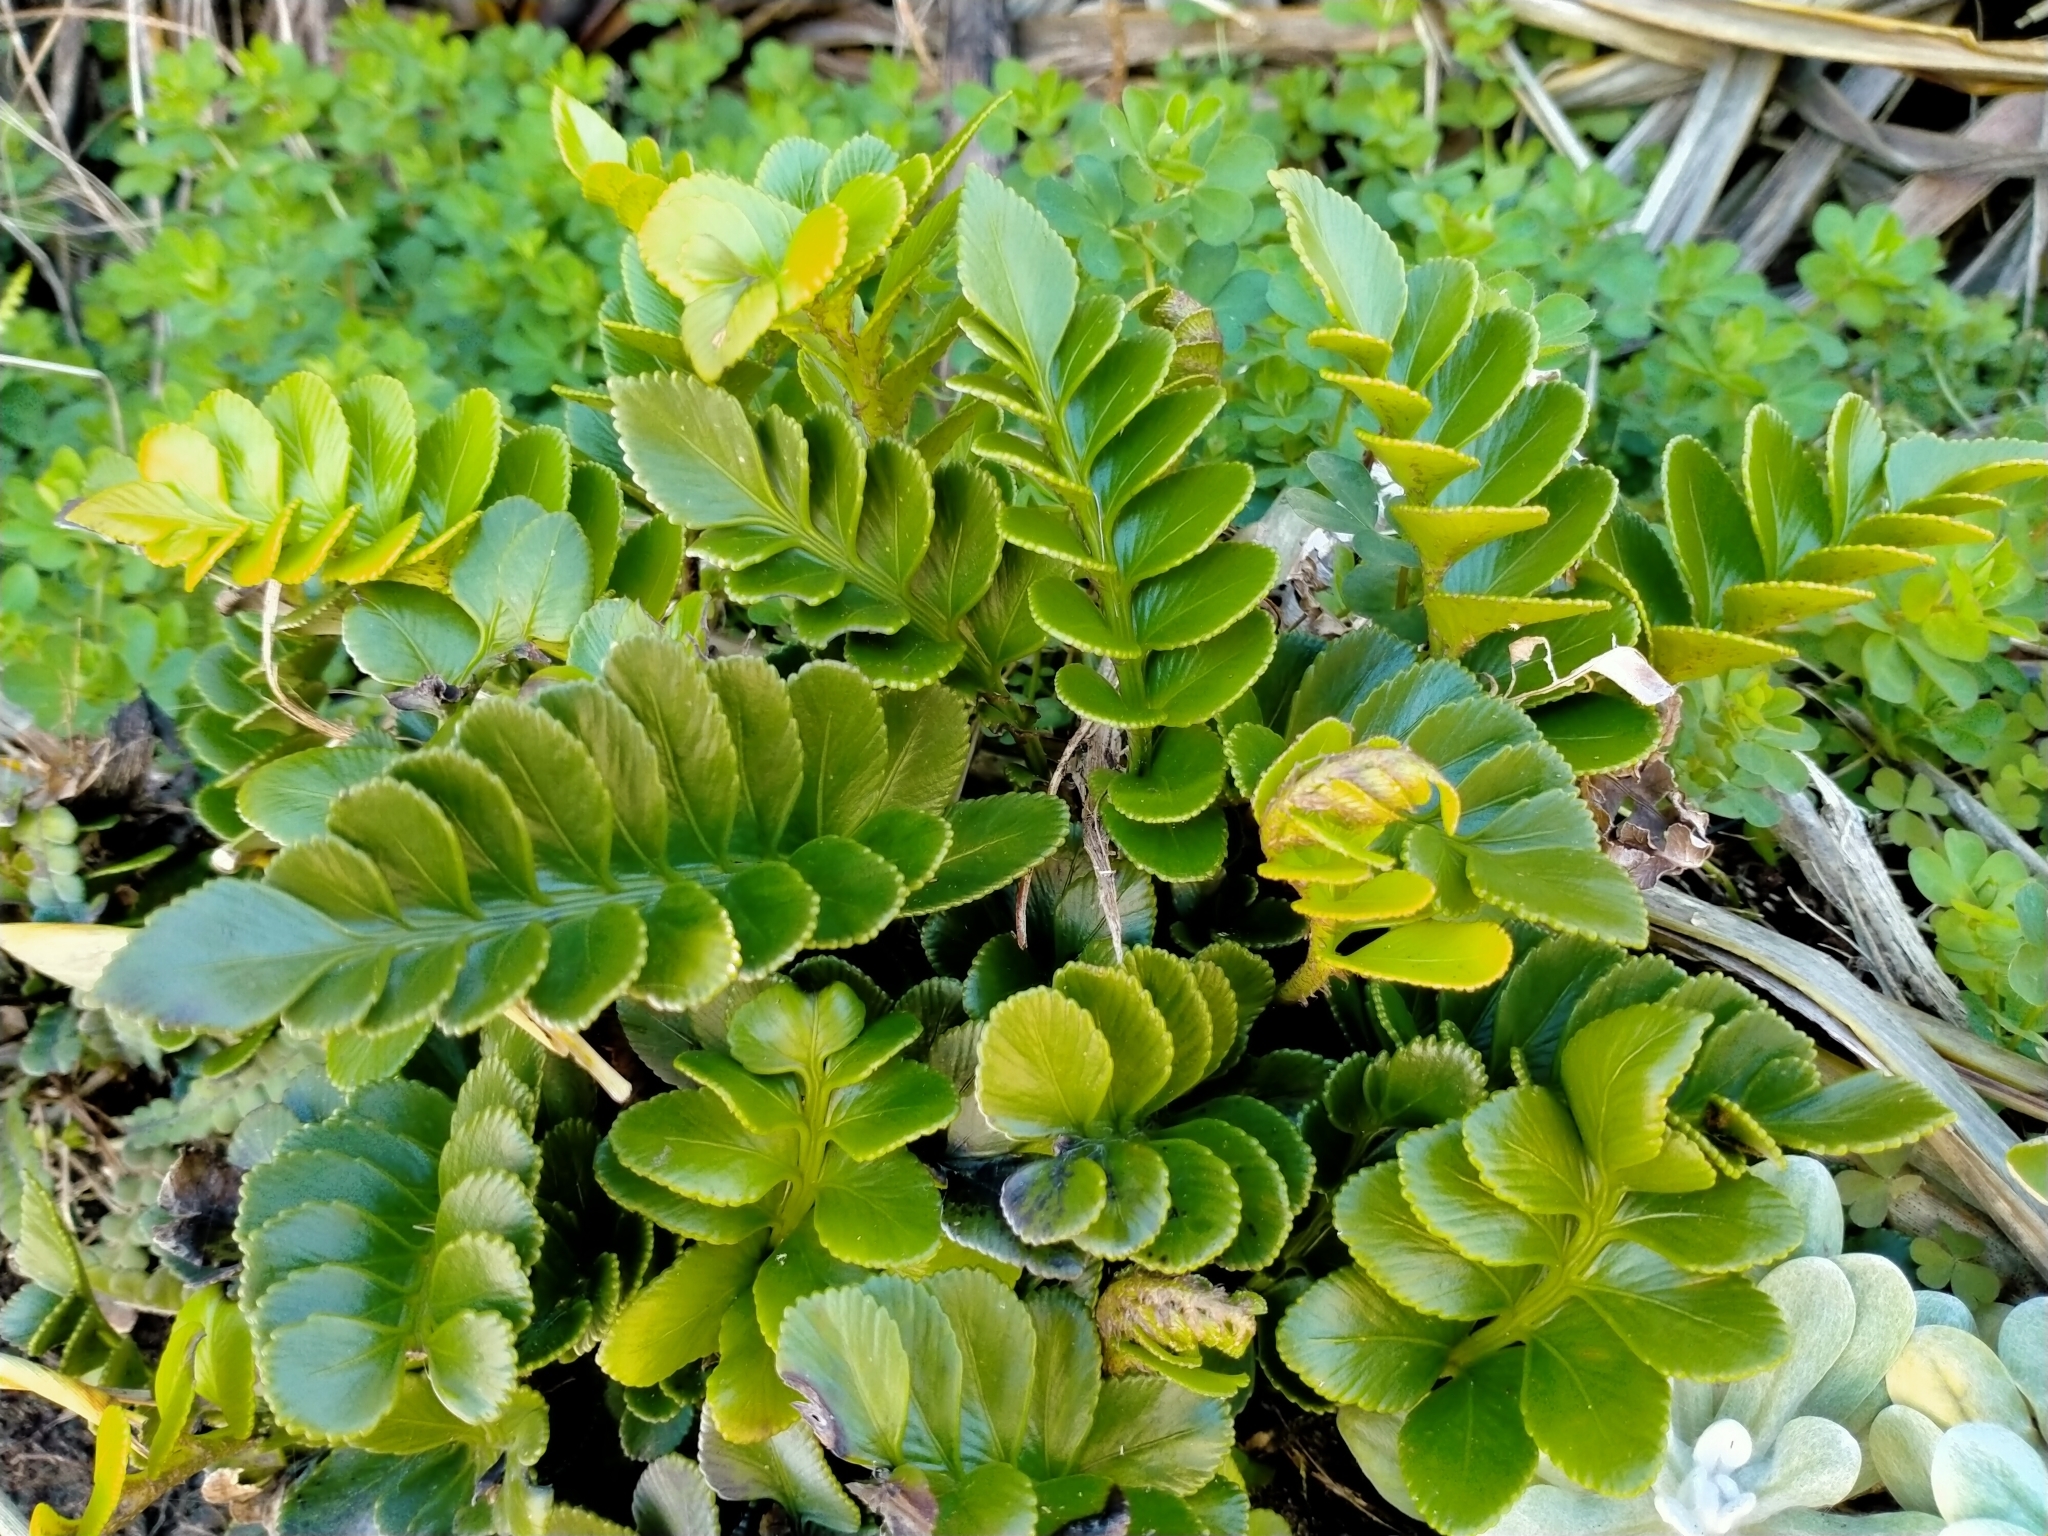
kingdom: Plantae
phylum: Tracheophyta
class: Polypodiopsida
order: Polypodiales
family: Aspleniaceae
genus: Asplenium
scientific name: Asplenium obtusatum
